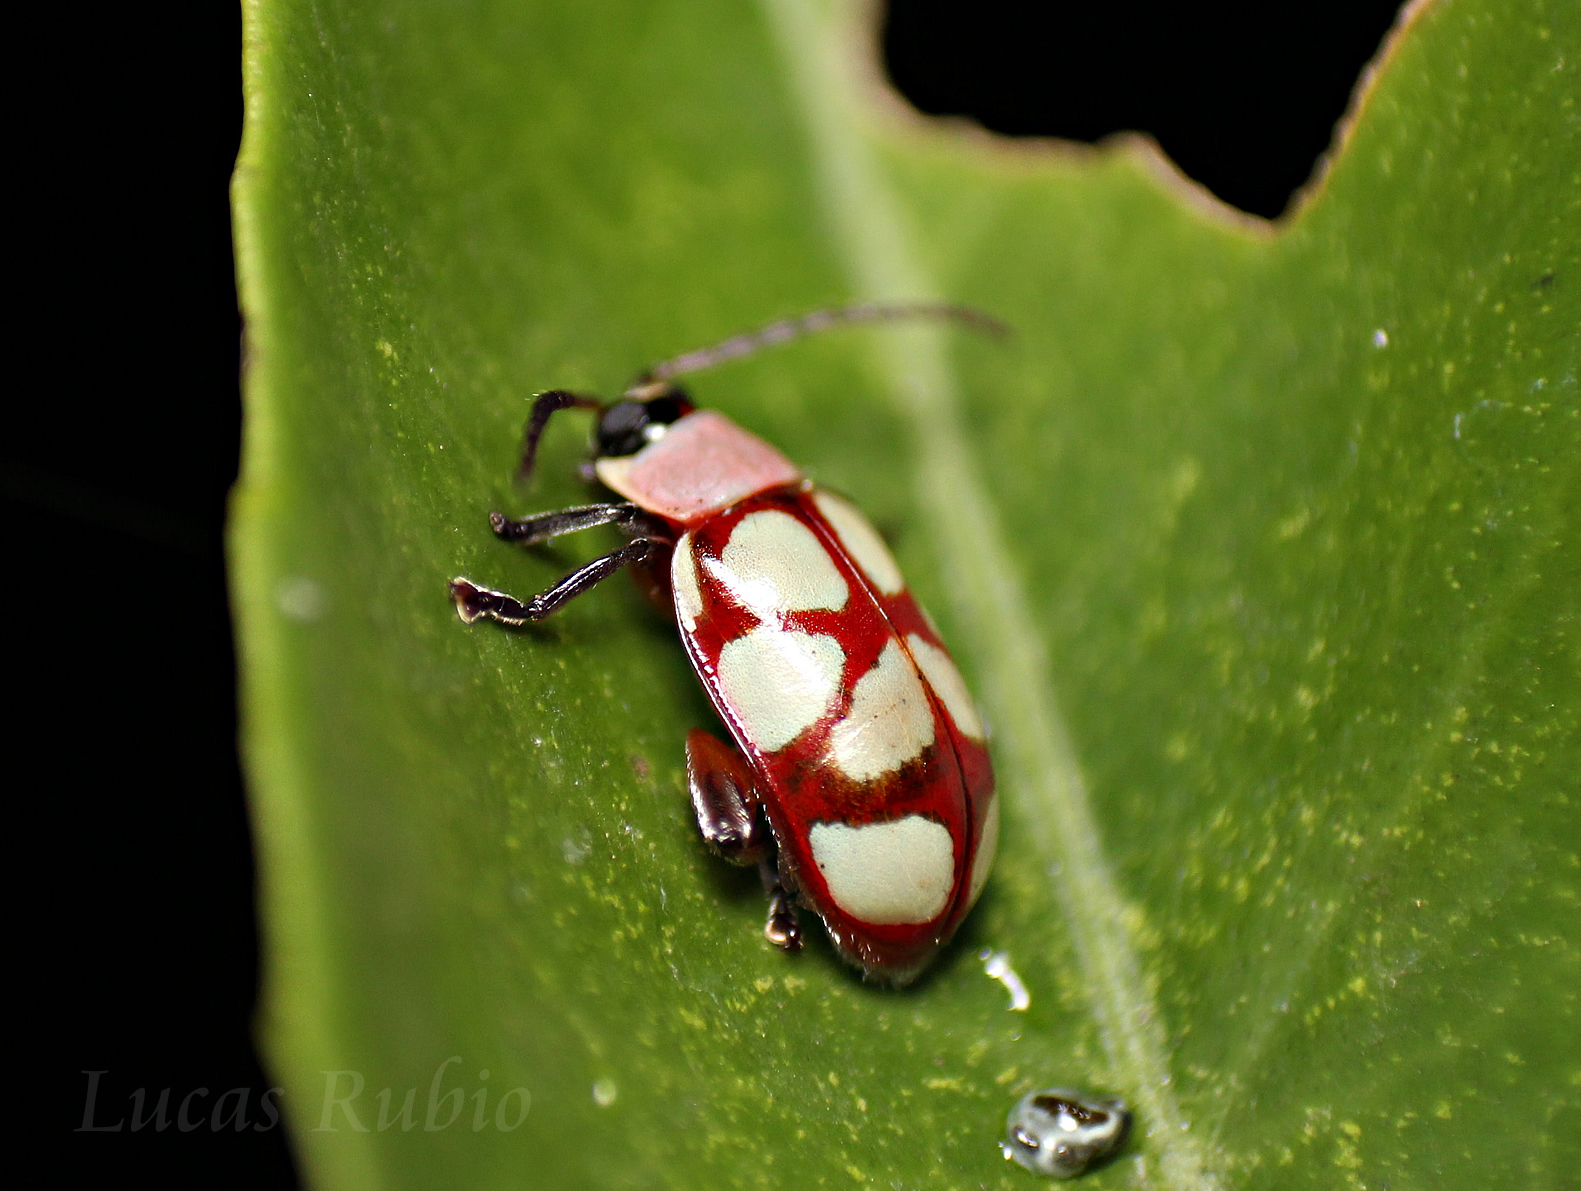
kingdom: Animalia
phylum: Arthropoda
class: Insecta
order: Coleoptera
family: Chrysomelidae
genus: Omophoita
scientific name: Omophoita
